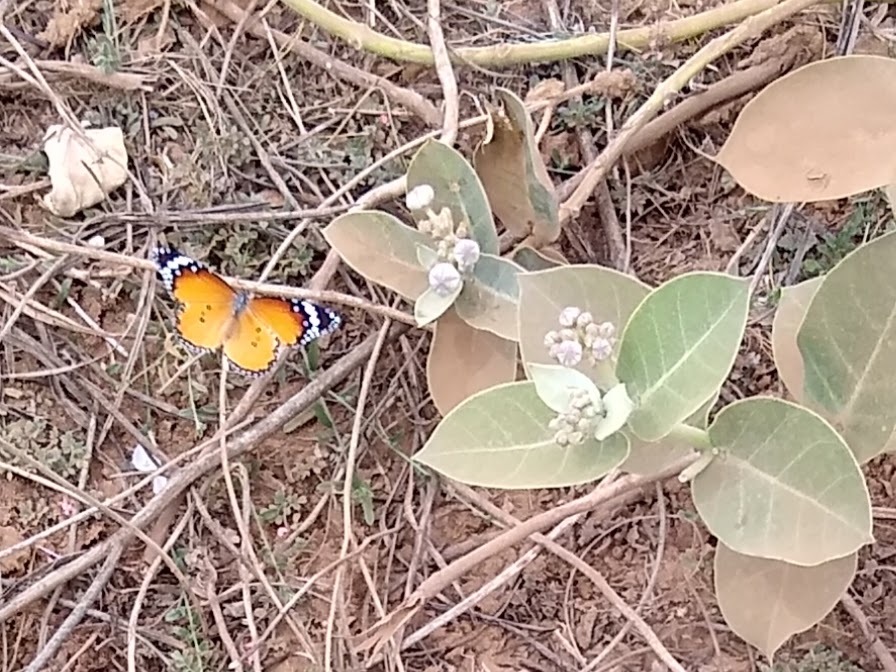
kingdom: Animalia
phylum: Arthropoda
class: Insecta
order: Lepidoptera
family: Nymphalidae
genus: Danaus
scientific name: Danaus chrysippus
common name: Plain tiger
